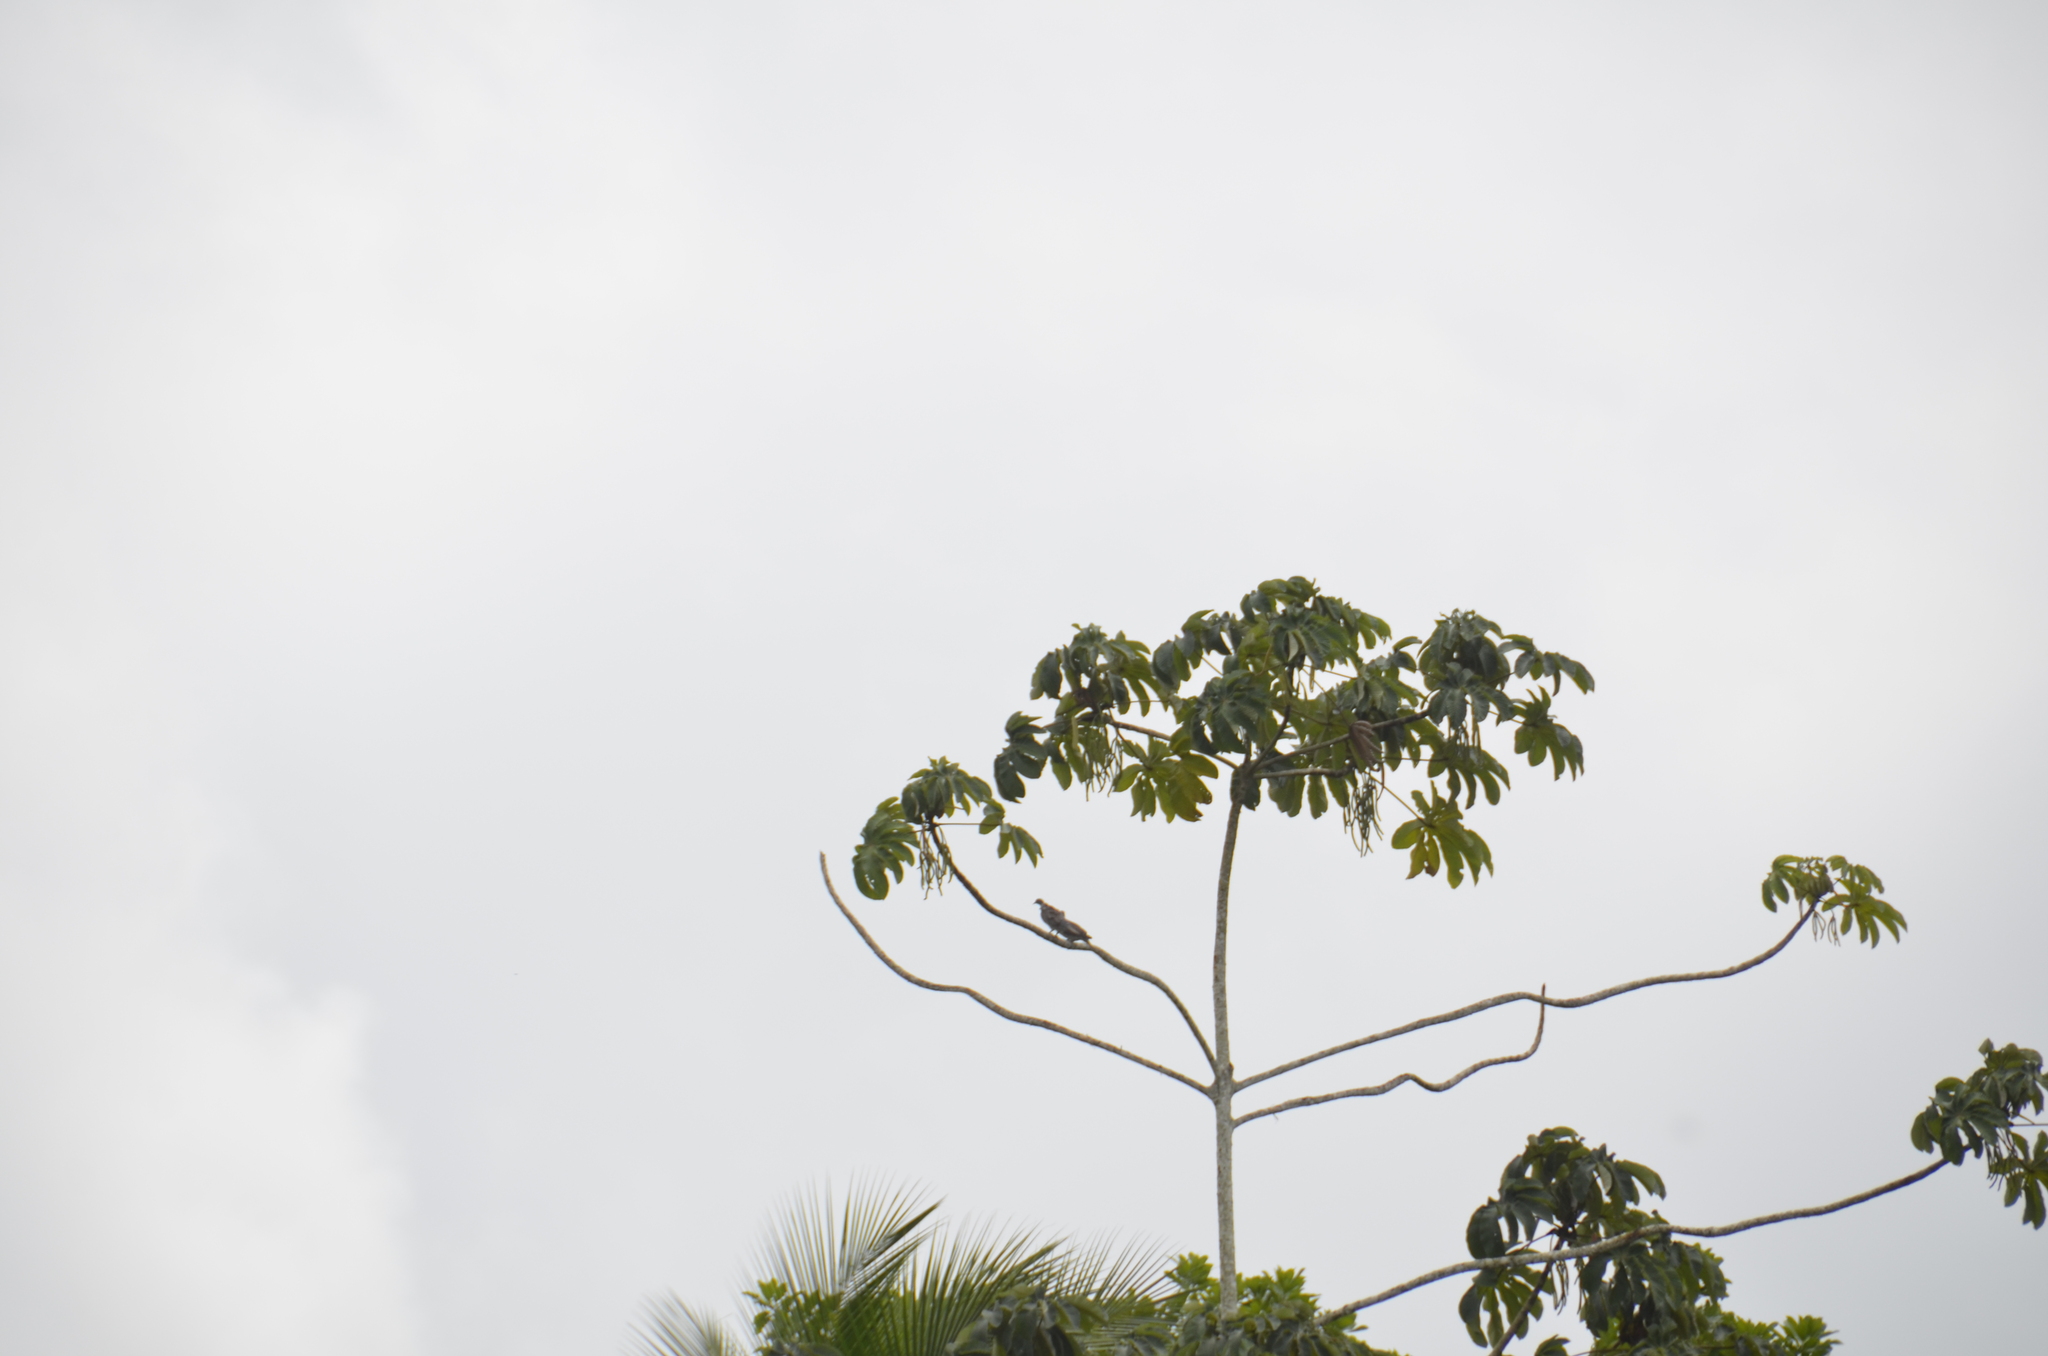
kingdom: Animalia
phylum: Chordata
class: Aves
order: Columbiformes
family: Columbidae
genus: Zenaida
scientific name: Zenaida asiatica
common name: White-winged dove
